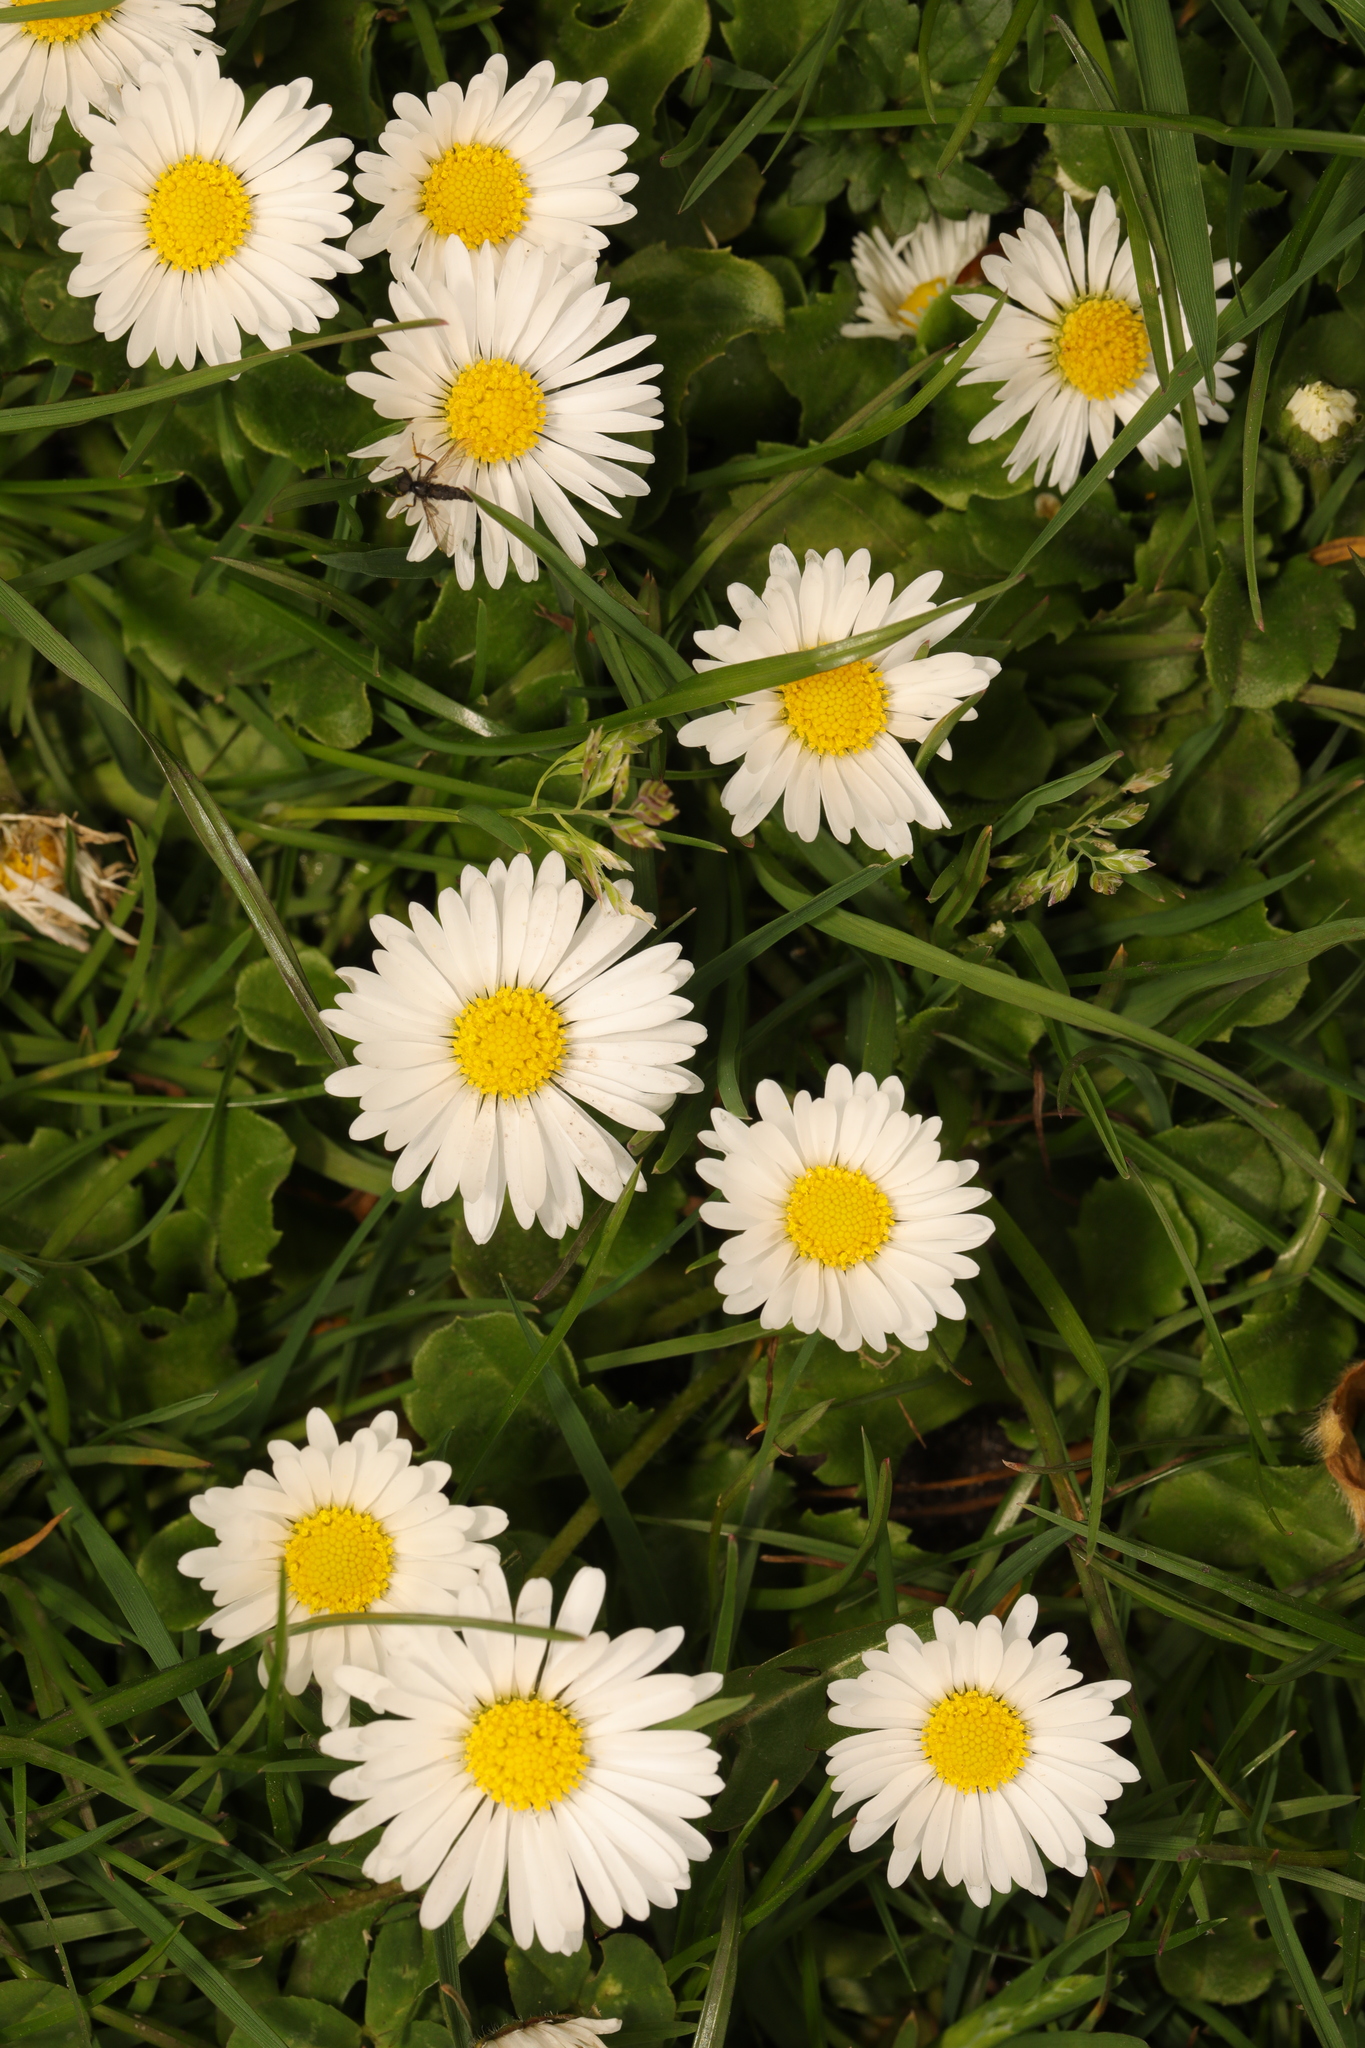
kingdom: Plantae
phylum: Tracheophyta
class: Magnoliopsida
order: Asterales
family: Asteraceae
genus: Bellis
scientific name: Bellis perennis
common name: Lawndaisy
